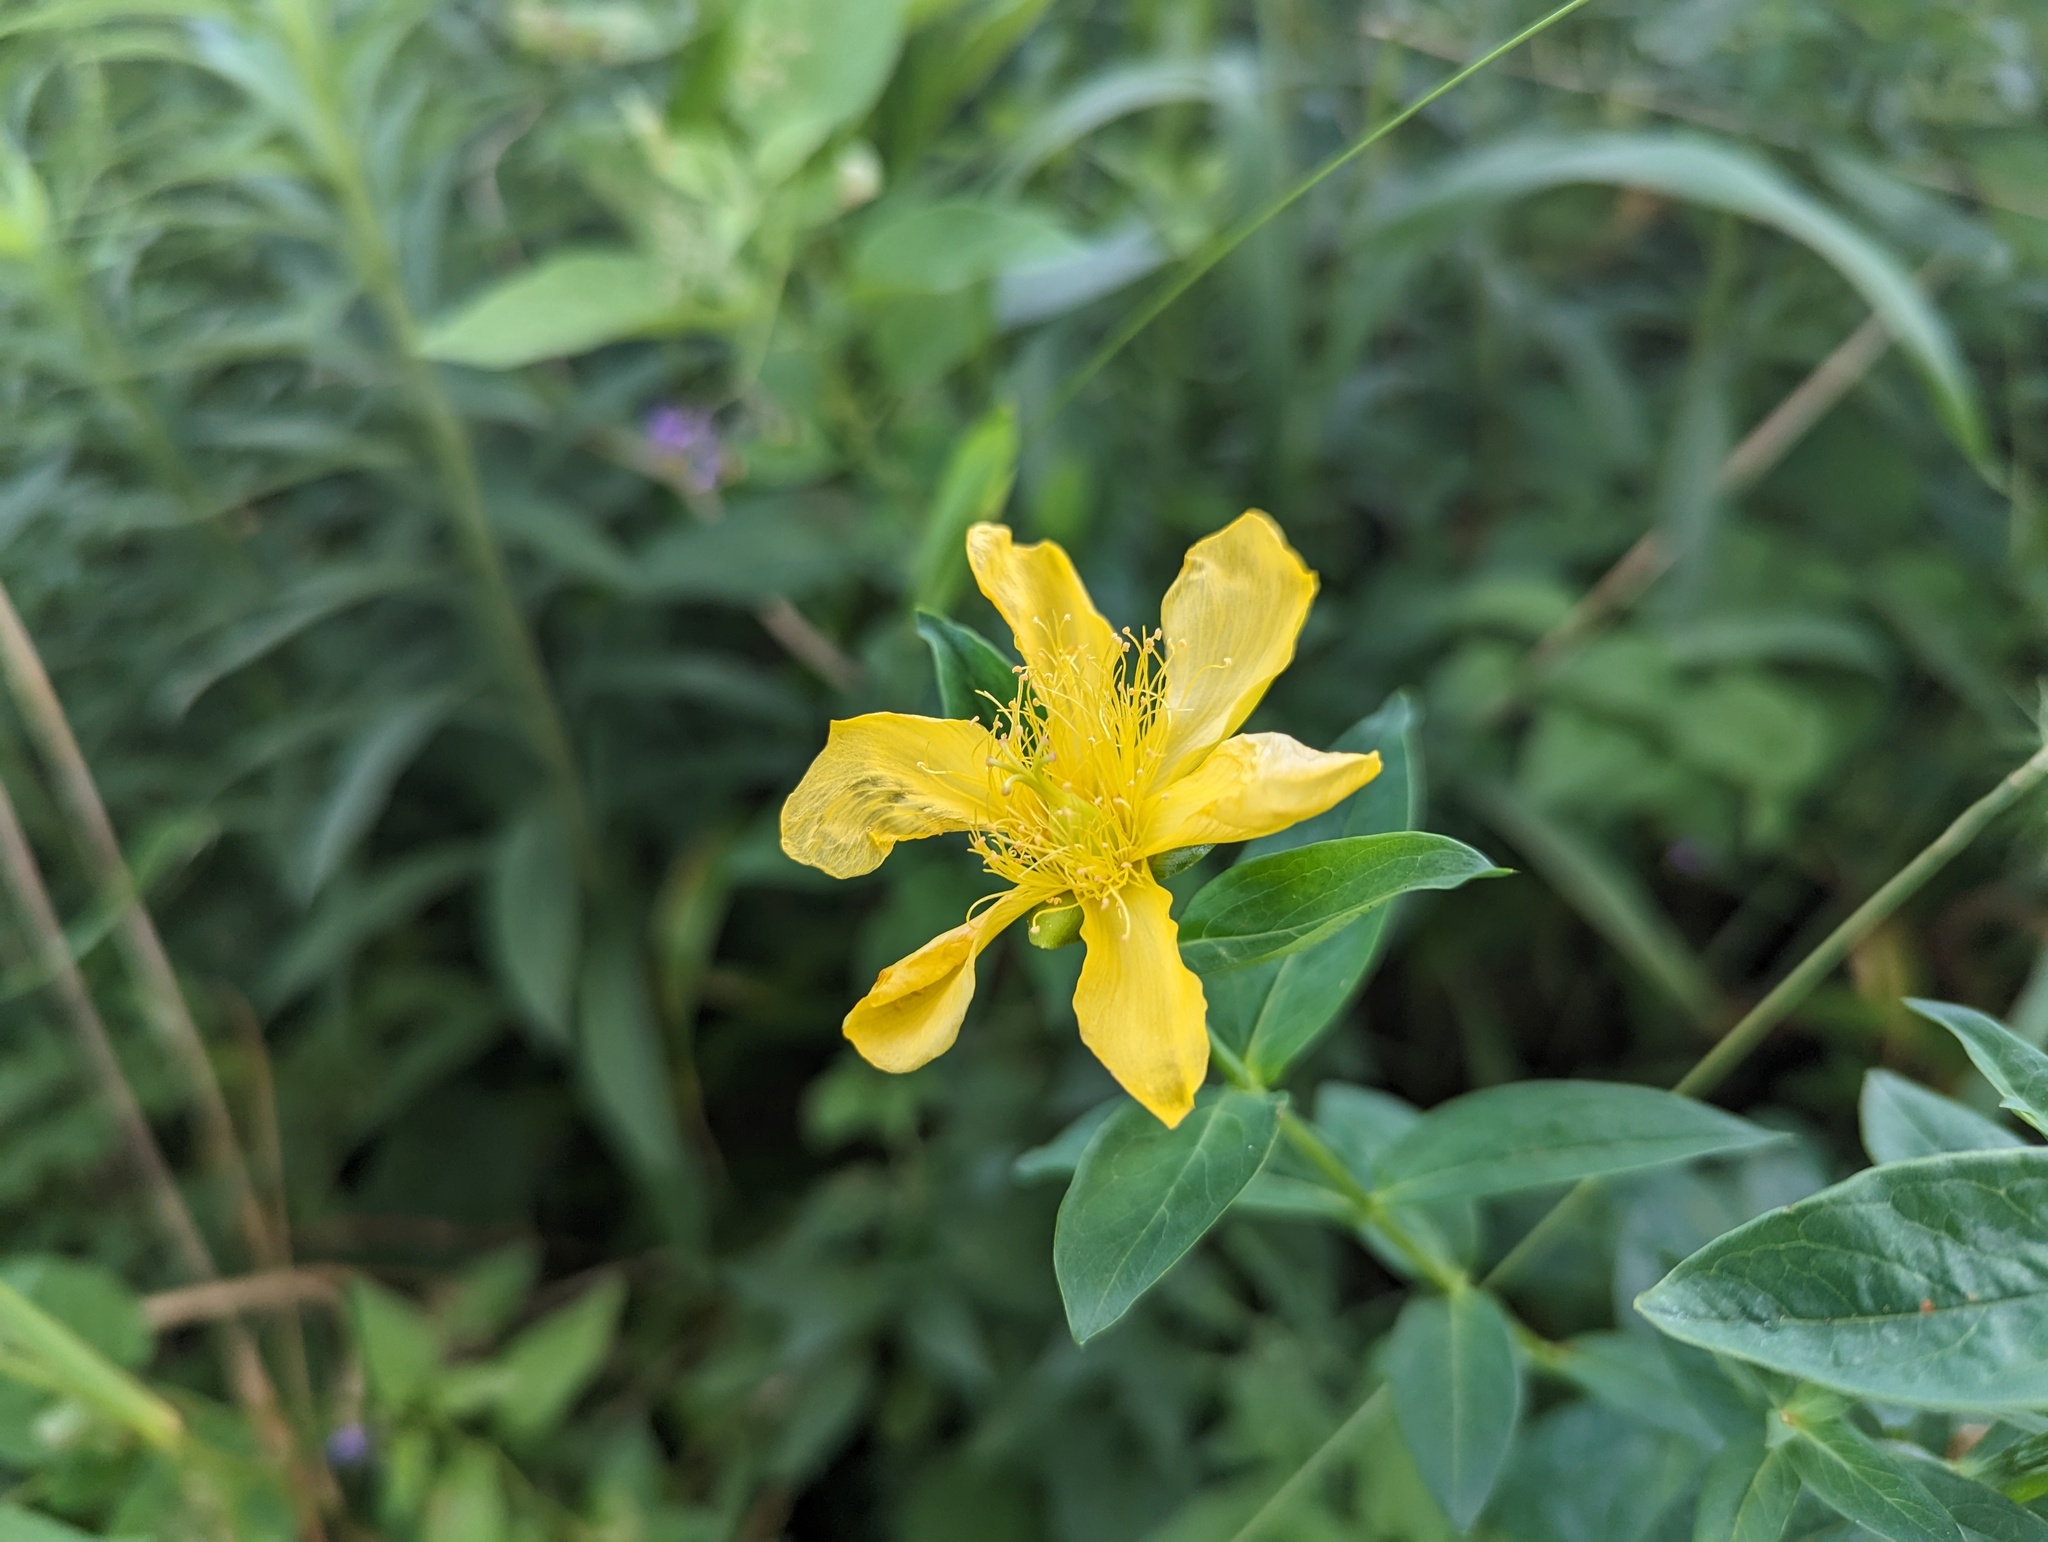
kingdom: Plantae
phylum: Tracheophyta
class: Magnoliopsida
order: Malpighiales
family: Hypericaceae
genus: Hypericum
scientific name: Hypericum ascyron
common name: Giant st. john's-wort
